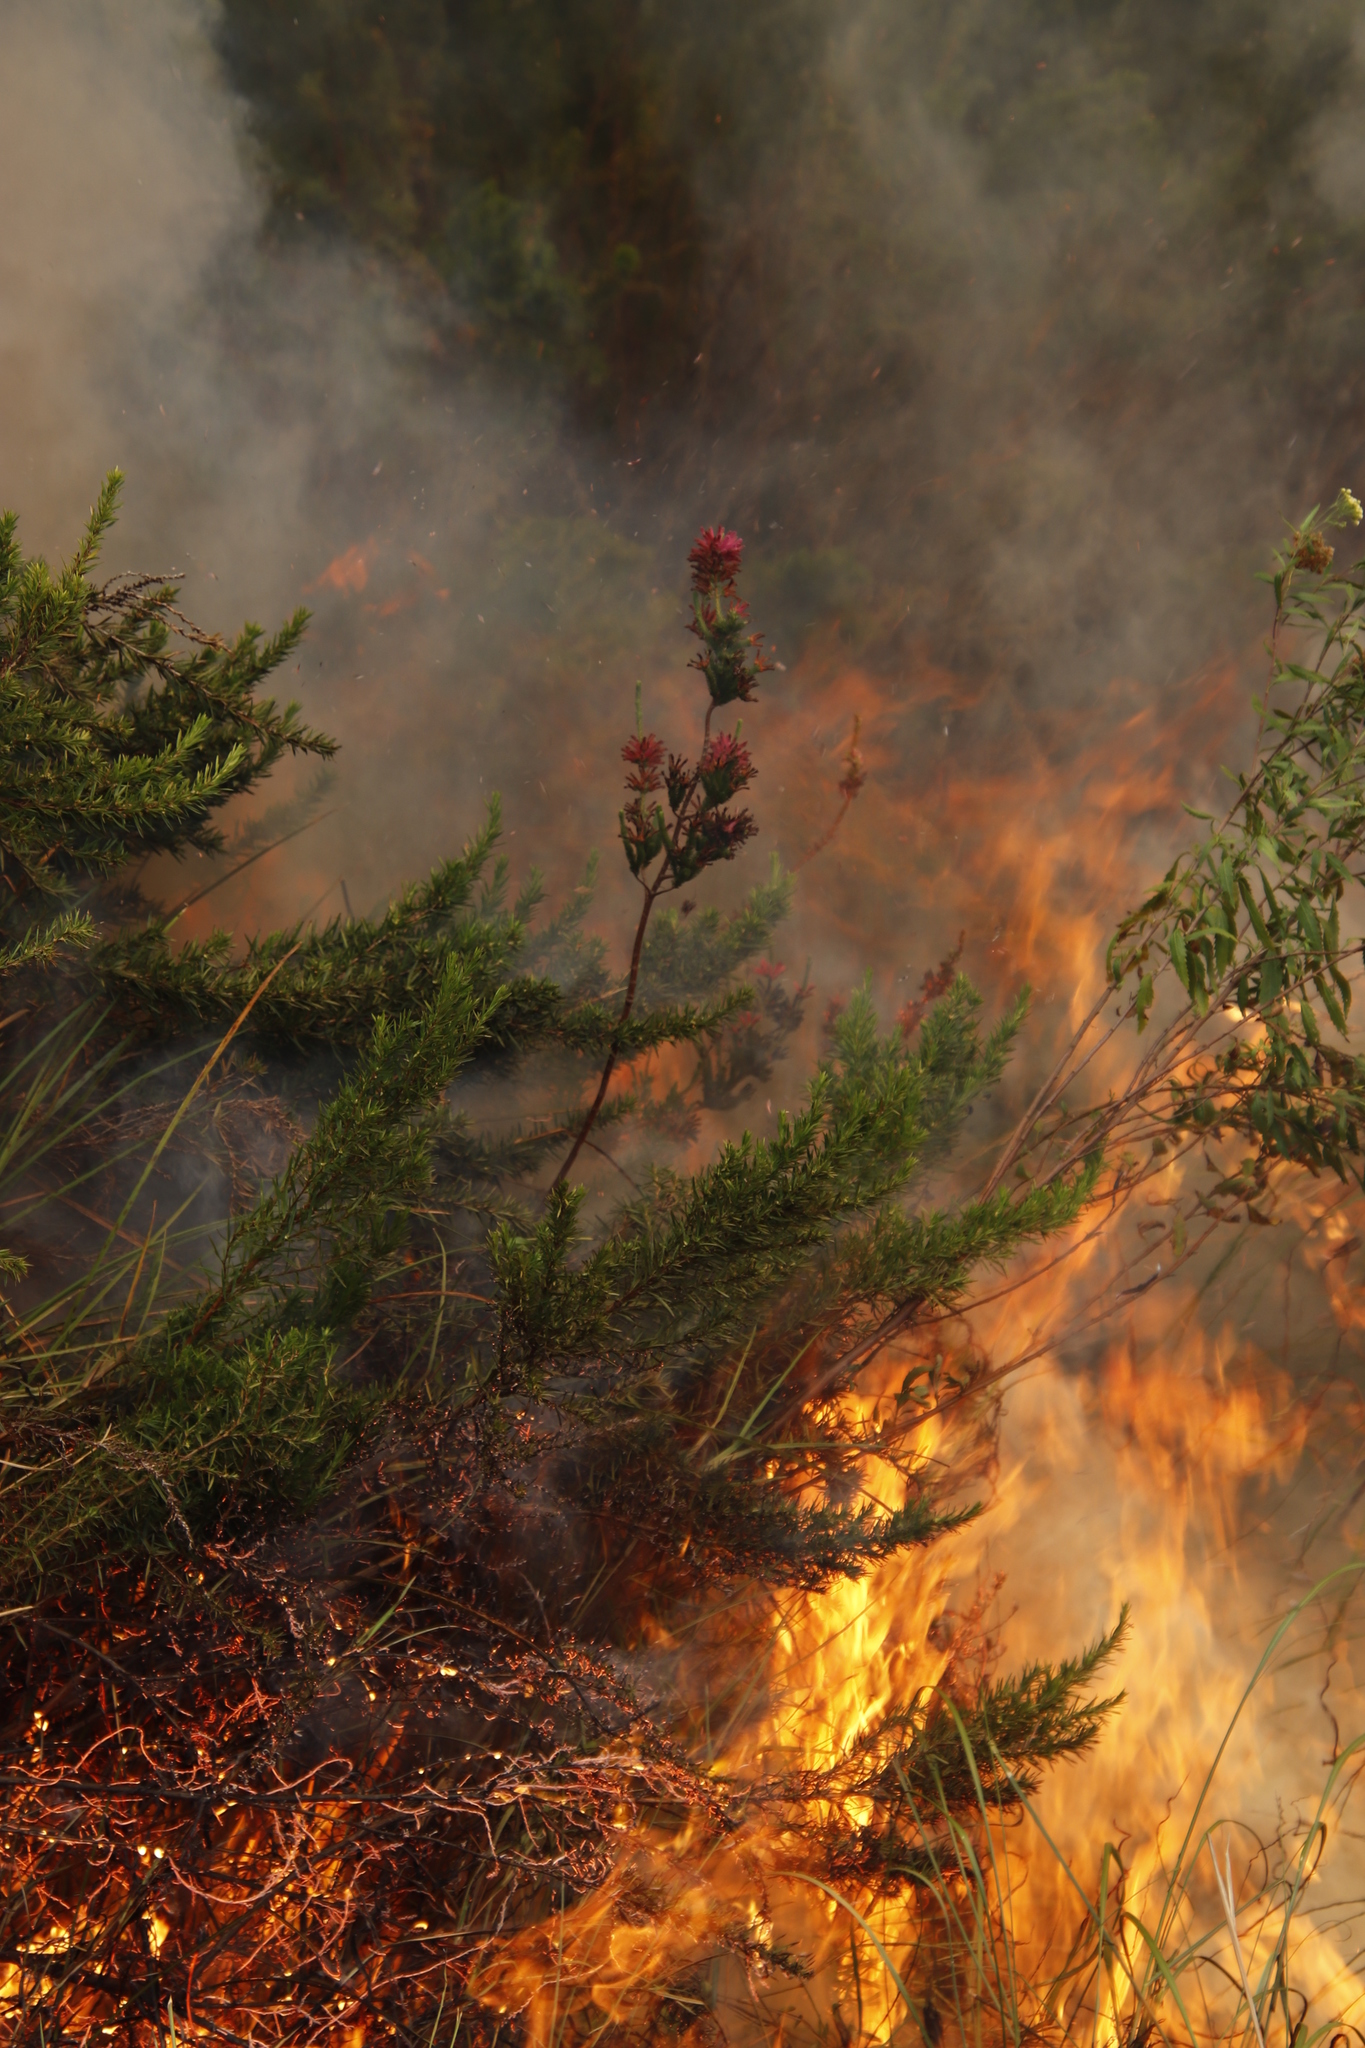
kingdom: Plantae
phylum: Tracheophyta
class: Magnoliopsida
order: Ericales
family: Ericaceae
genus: Erica
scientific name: Erica verticillata
